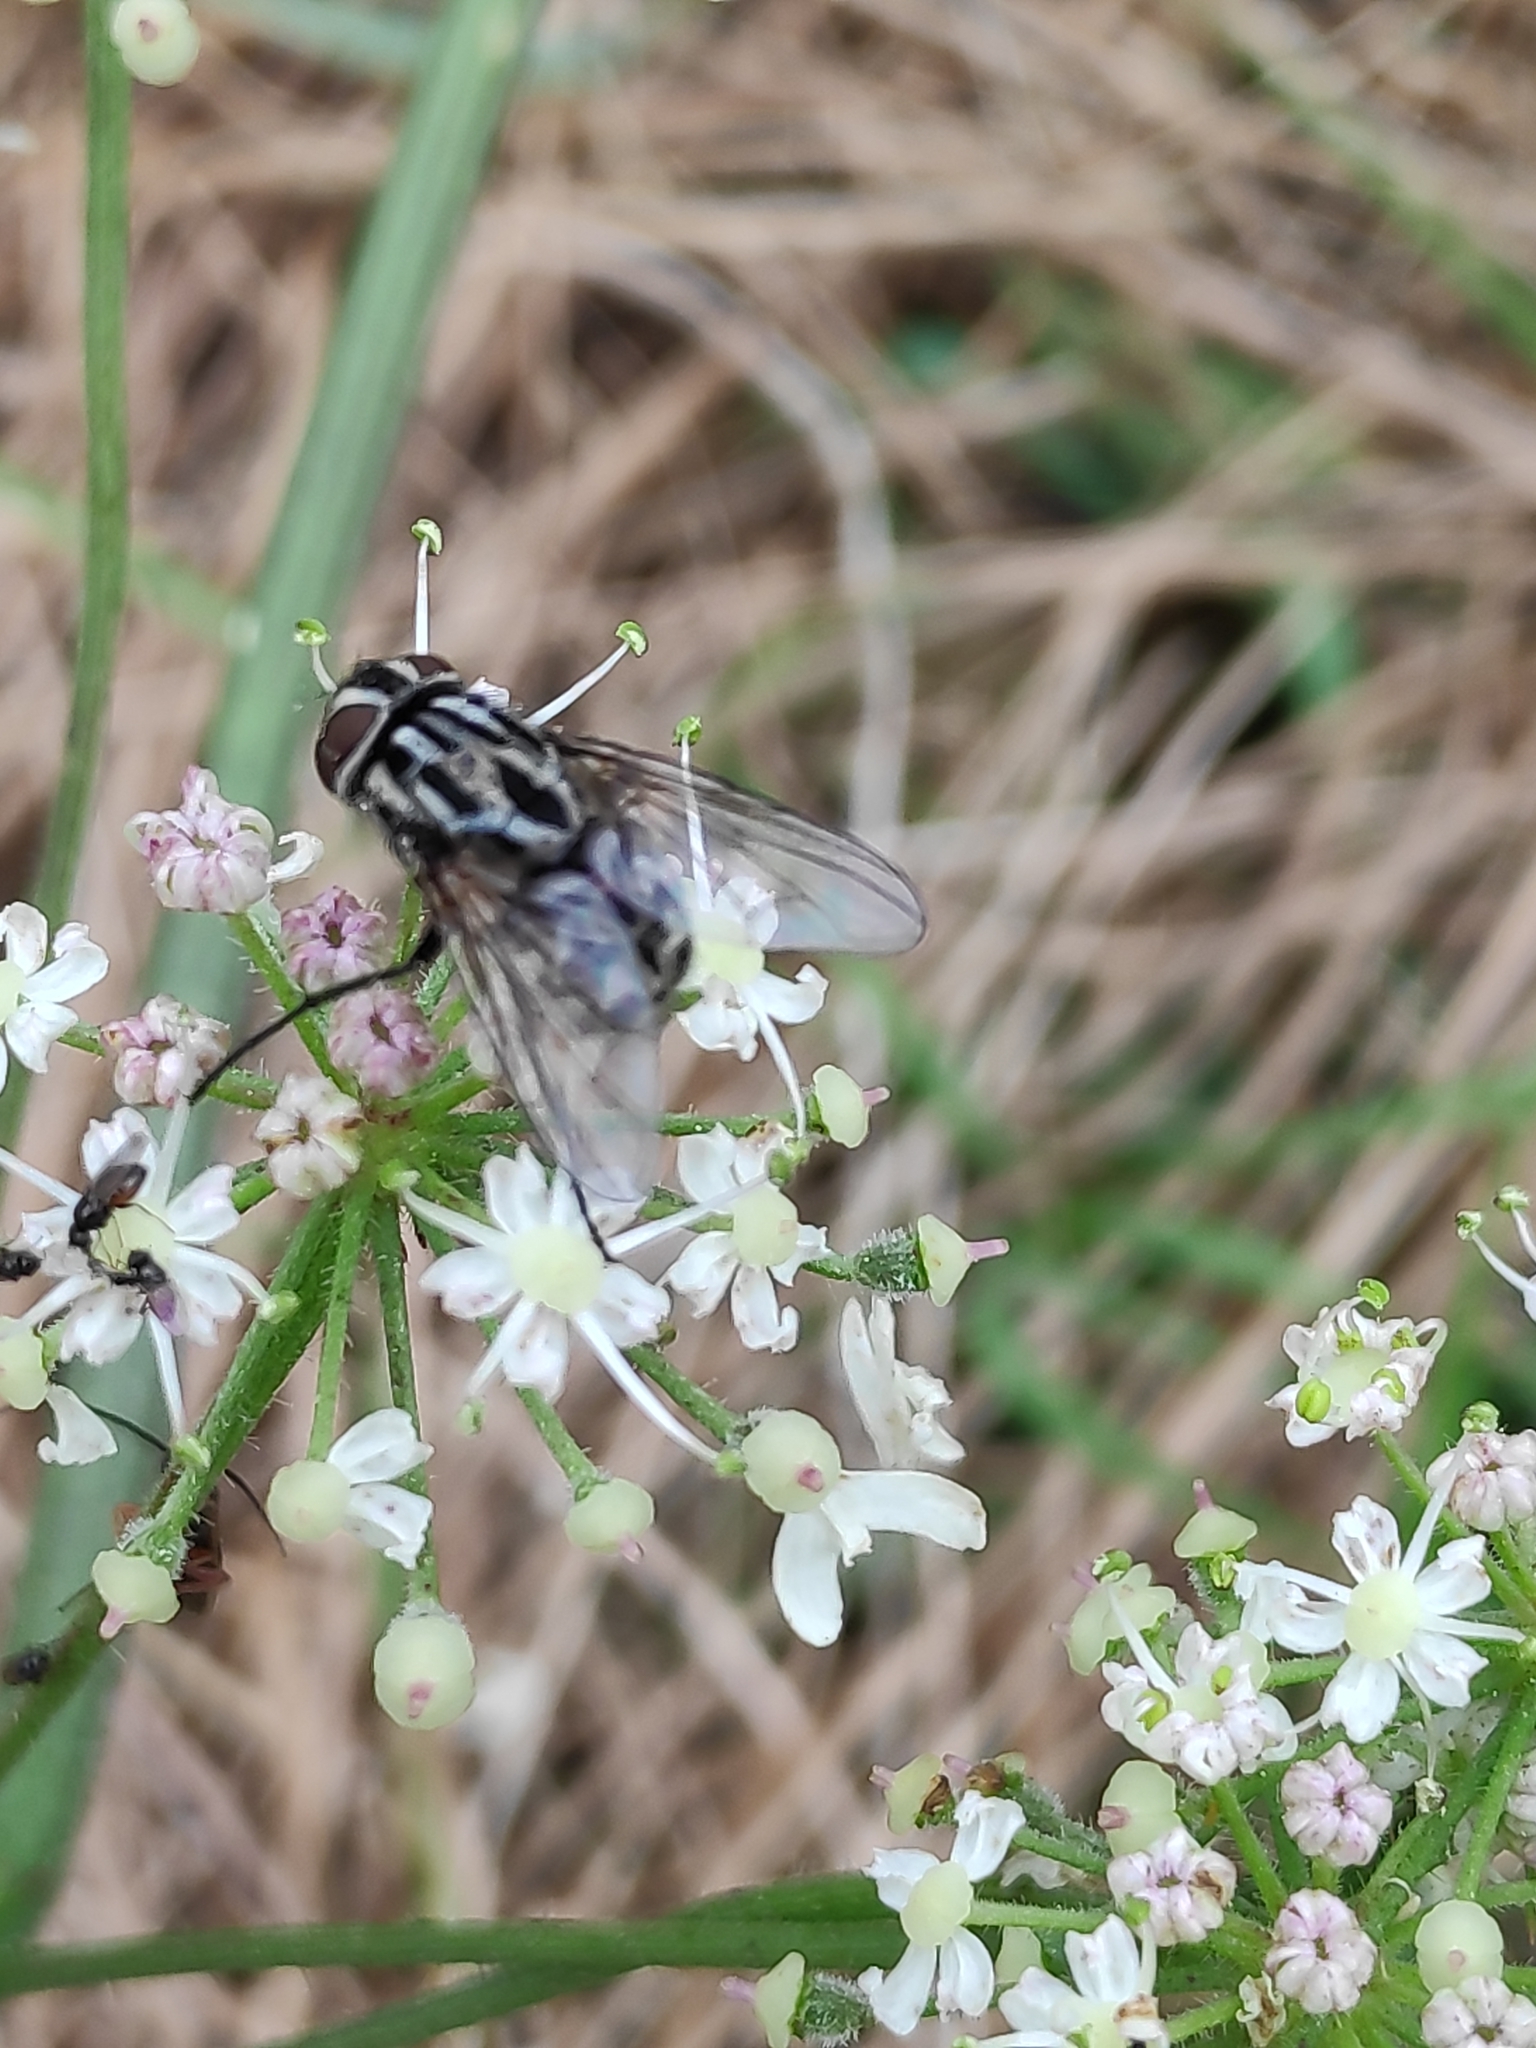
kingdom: Animalia
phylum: Arthropoda
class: Insecta
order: Diptera
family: Muscidae
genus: Graphomya
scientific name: Graphomya maculata
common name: Muscid fly
